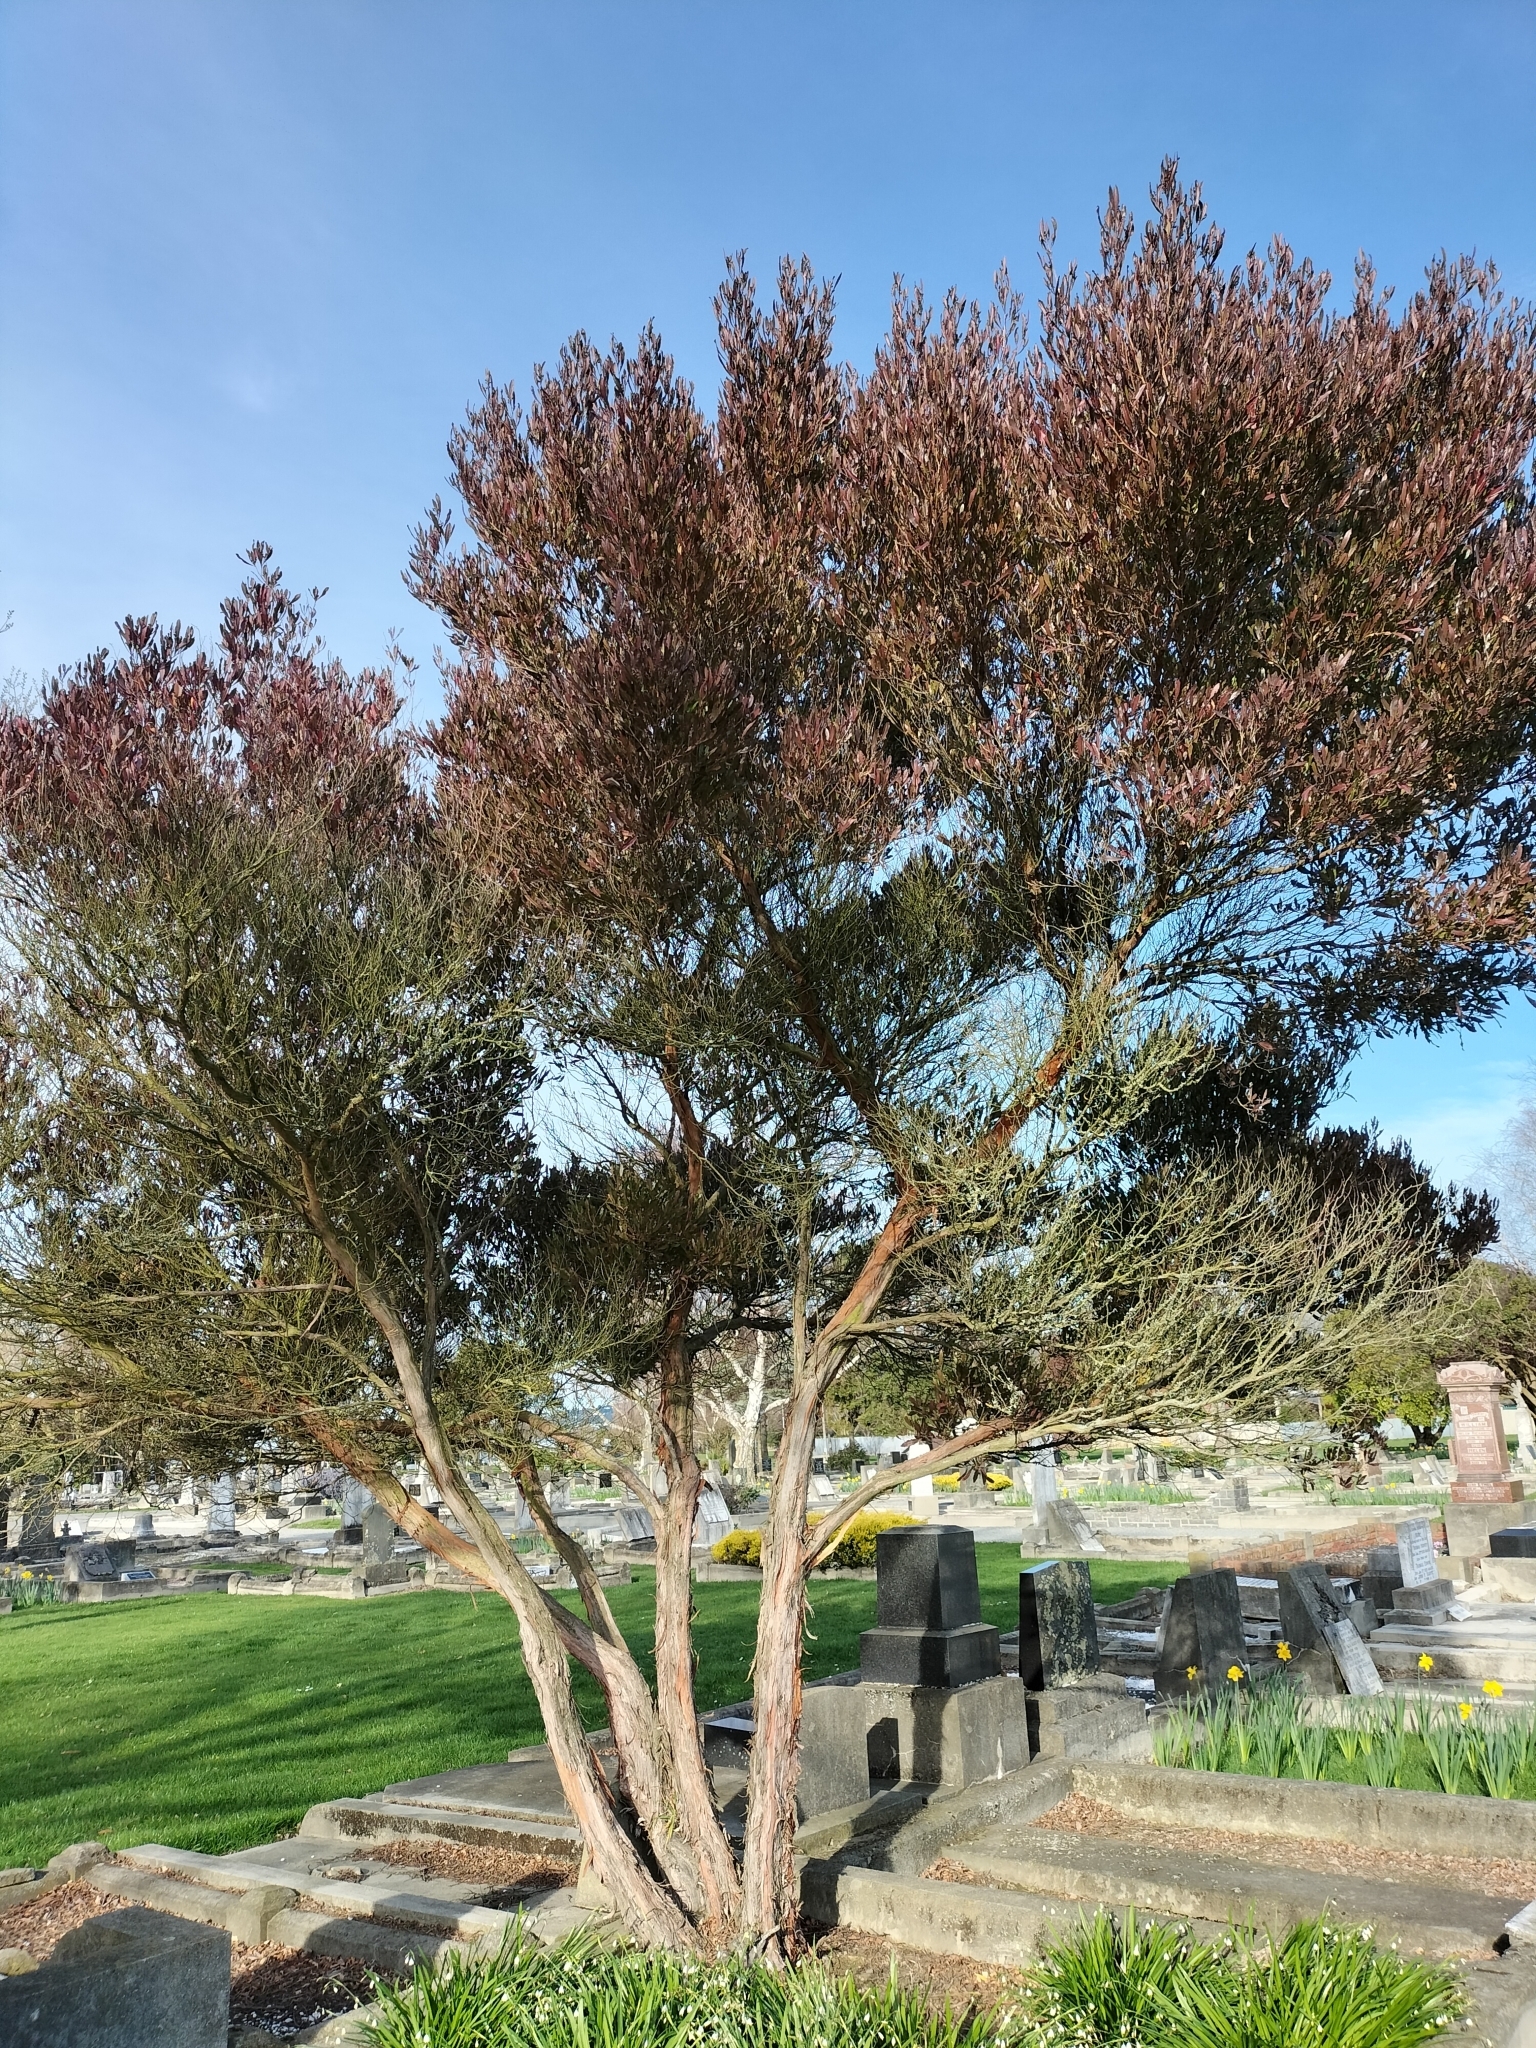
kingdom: Plantae
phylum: Tracheophyta
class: Magnoliopsida
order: Sapindales
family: Sapindaceae
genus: Dodonaea
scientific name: Dodonaea viscosa
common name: Hopbush
